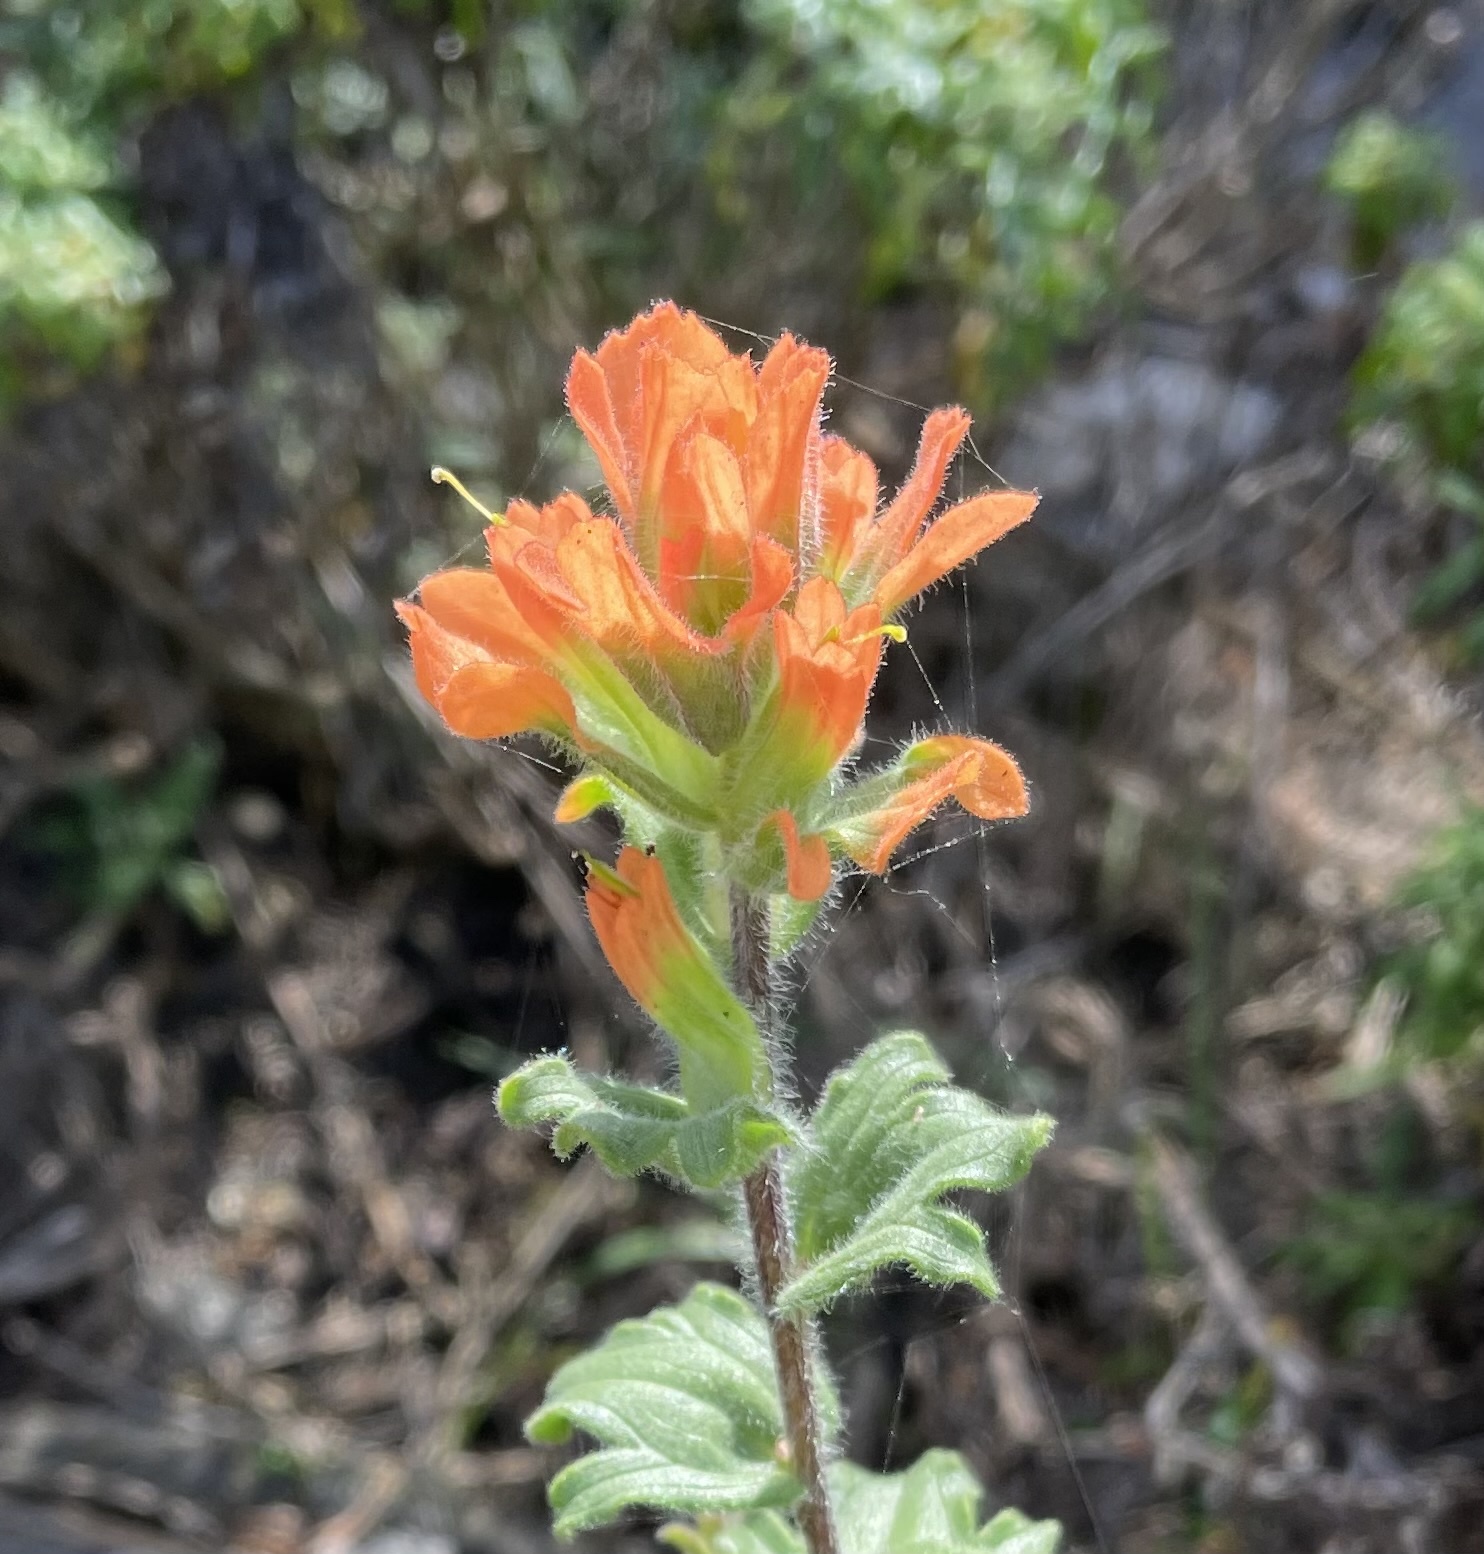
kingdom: Plantae
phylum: Tracheophyta
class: Magnoliopsida
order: Lamiales
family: Orobanchaceae
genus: Castilleja
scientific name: Castilleja latifolia
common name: Monterey indian paintbrush
